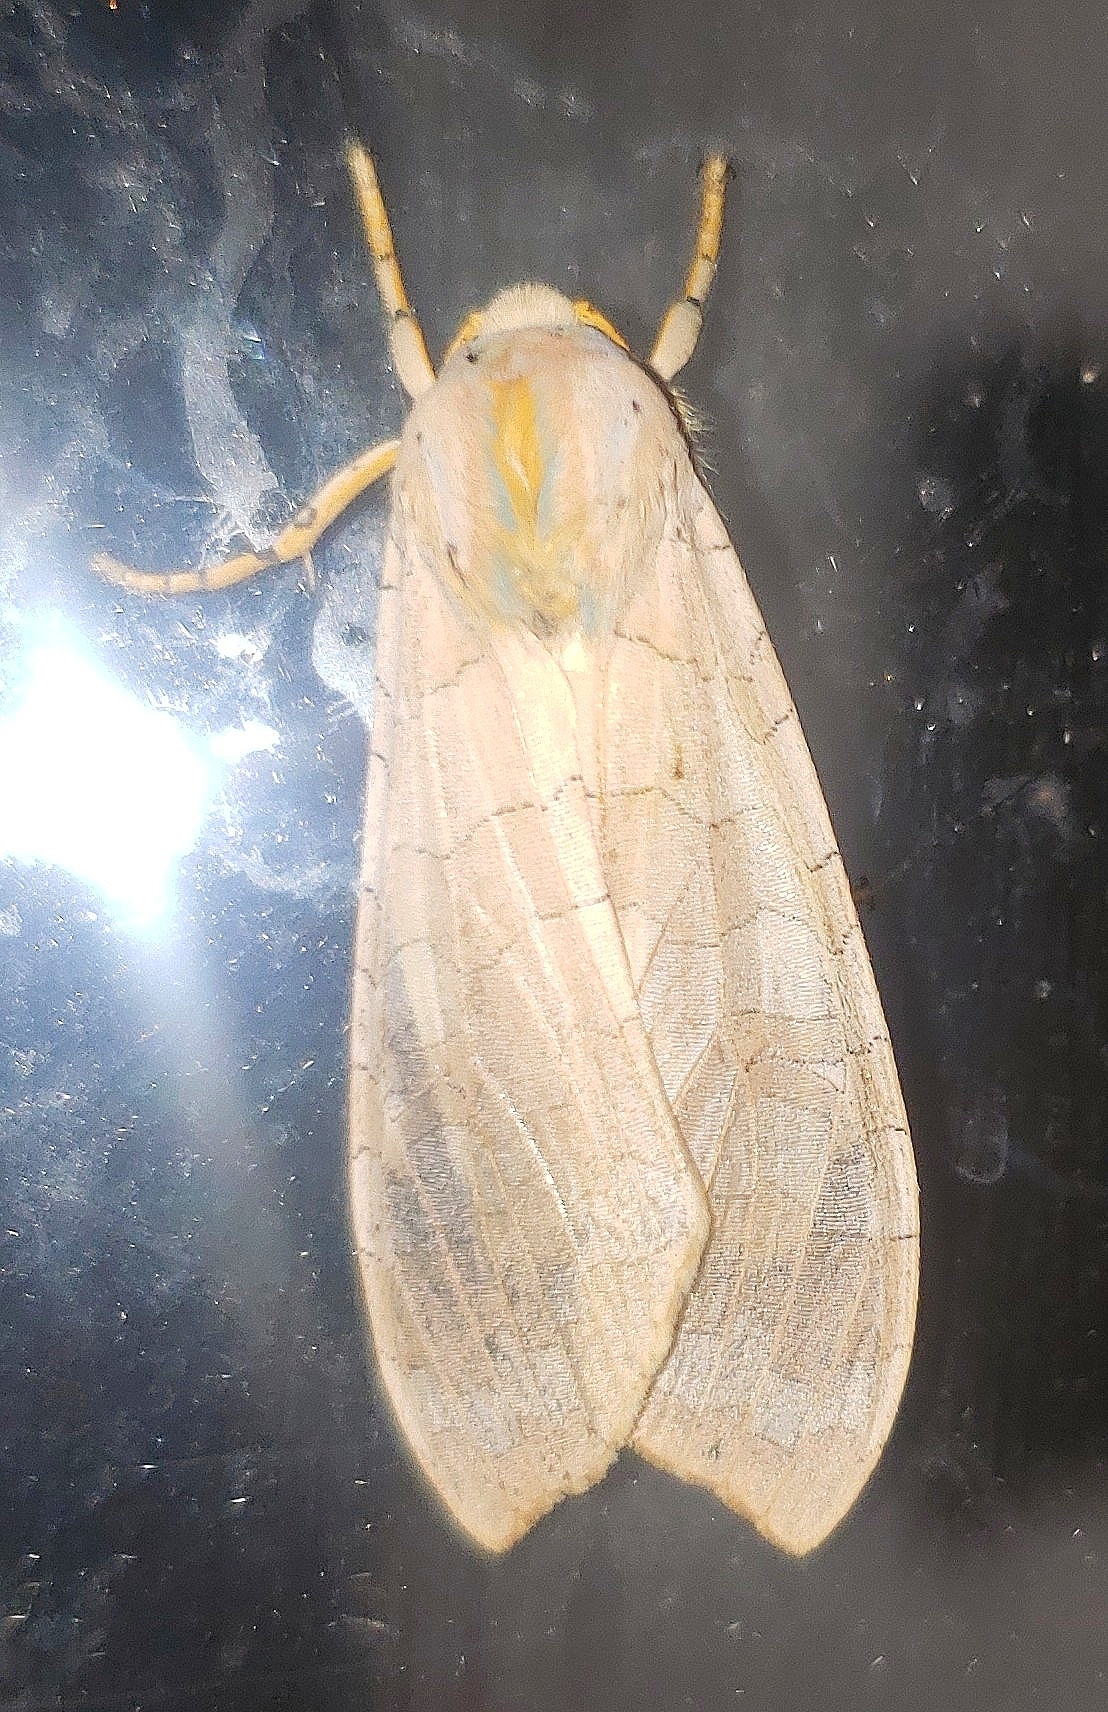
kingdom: Animalia
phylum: Arthropoda
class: Insecta
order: Lepidoptera
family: Erebidae
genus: Halysidota
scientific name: Halysidota
